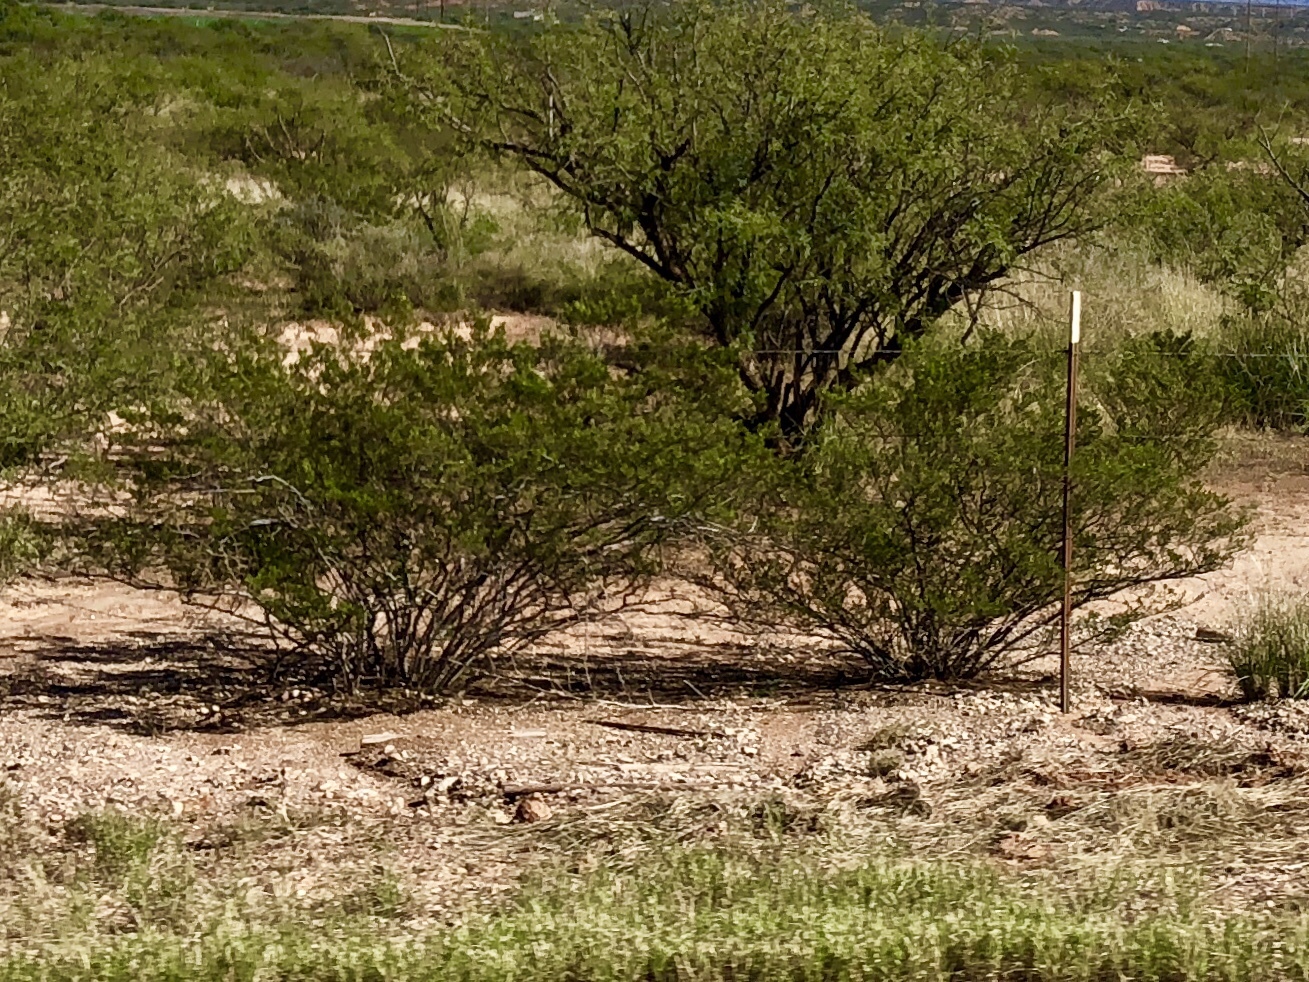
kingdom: Plantae
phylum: Tracheophyta
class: Magnoliopsida
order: Zygophyllales
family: Zygophyllaceae
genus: Larrea
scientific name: Larrea tridentata
